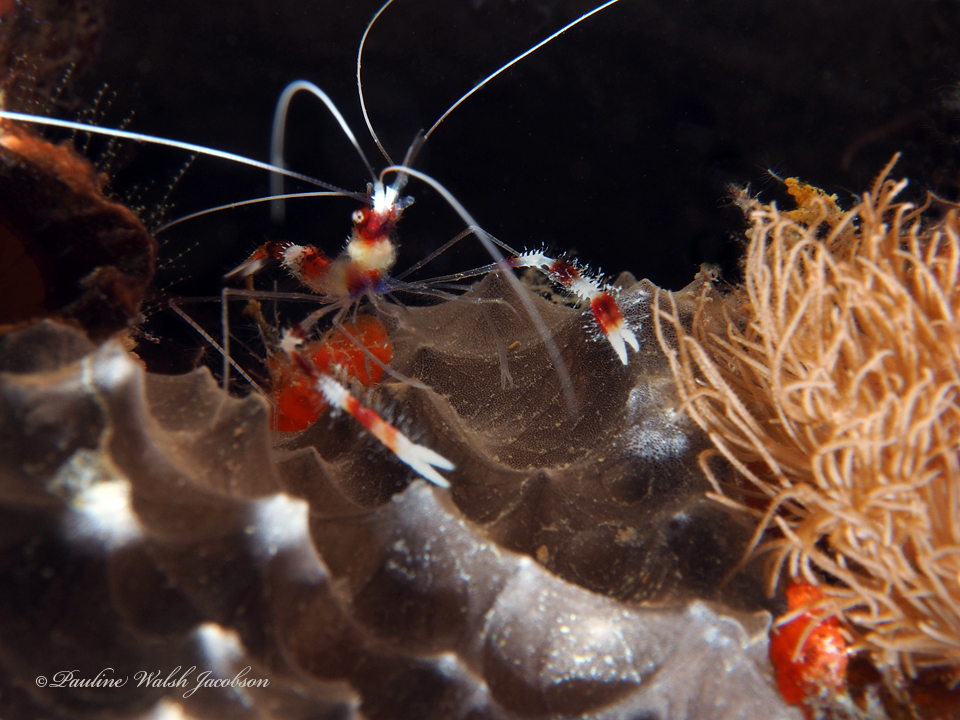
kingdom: Animalia
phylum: Arthropoda
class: Malacostraca
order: Decapoda
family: Stenopodidae
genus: Stenopus
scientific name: Stenopus hispidus
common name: Banded coral shrimp
